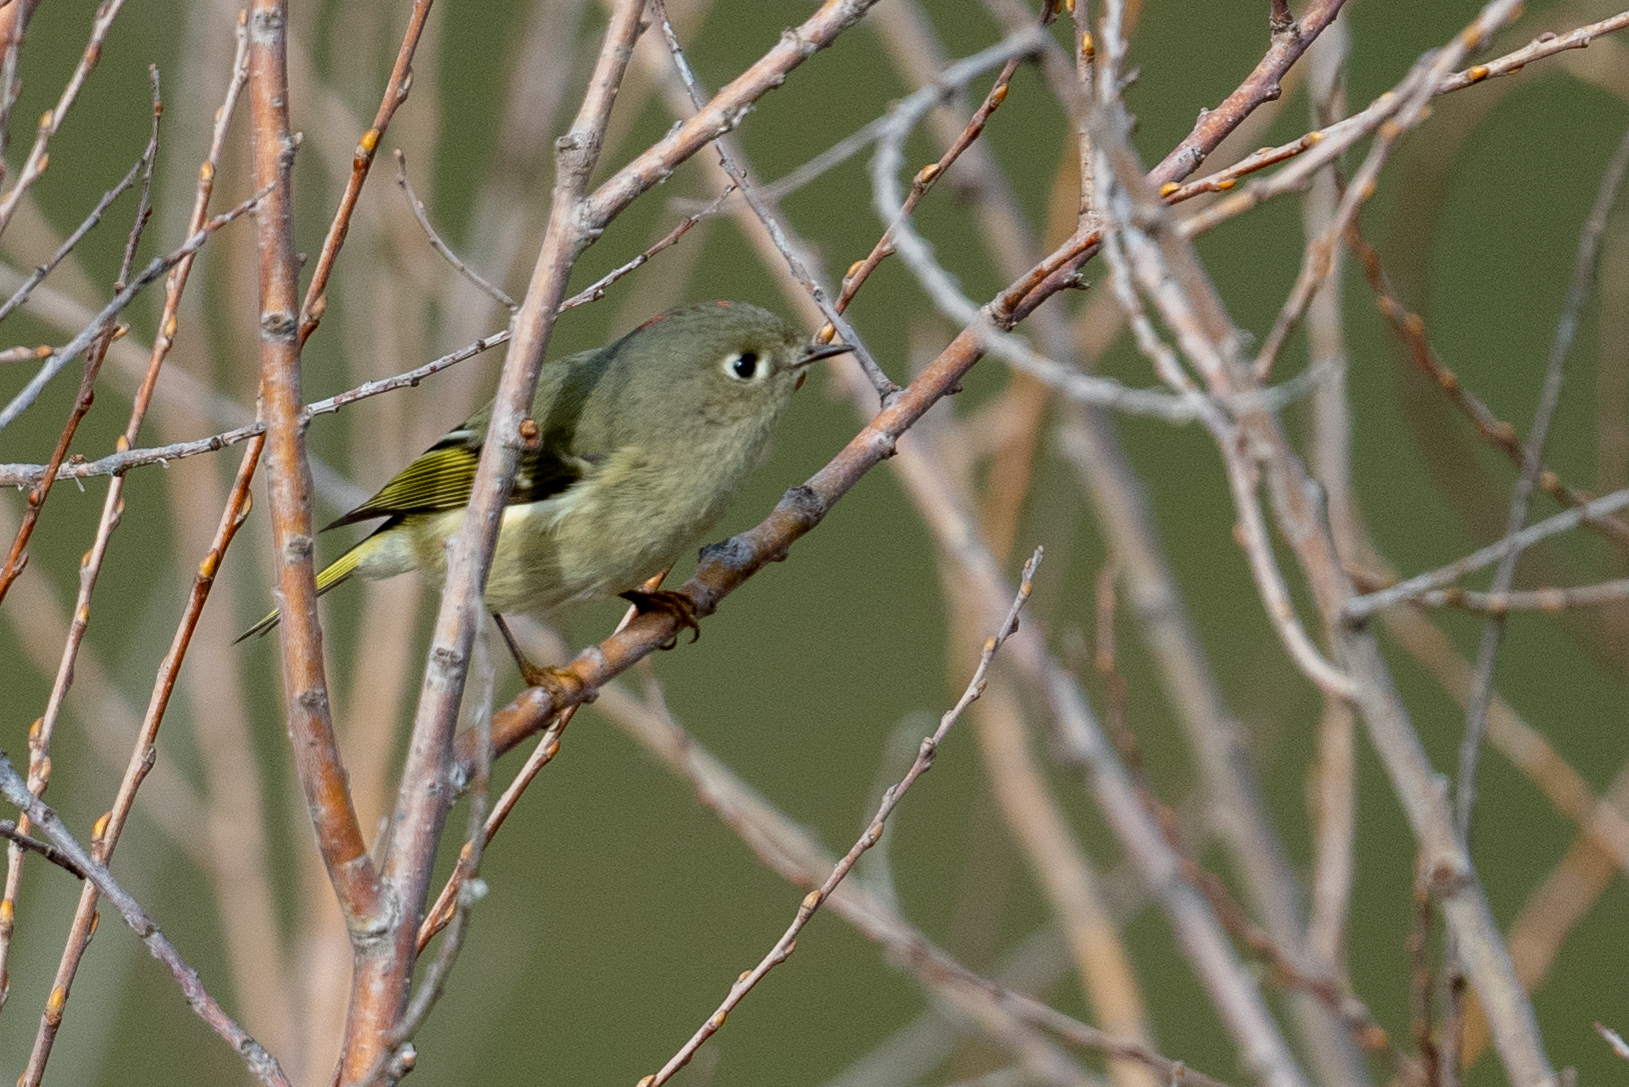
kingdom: Animalia
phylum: Chordata
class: Aves
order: Passeriformes
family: Regulidae
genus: Regulus
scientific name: Regulus calendula
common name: Ruby-crowned kinglet
